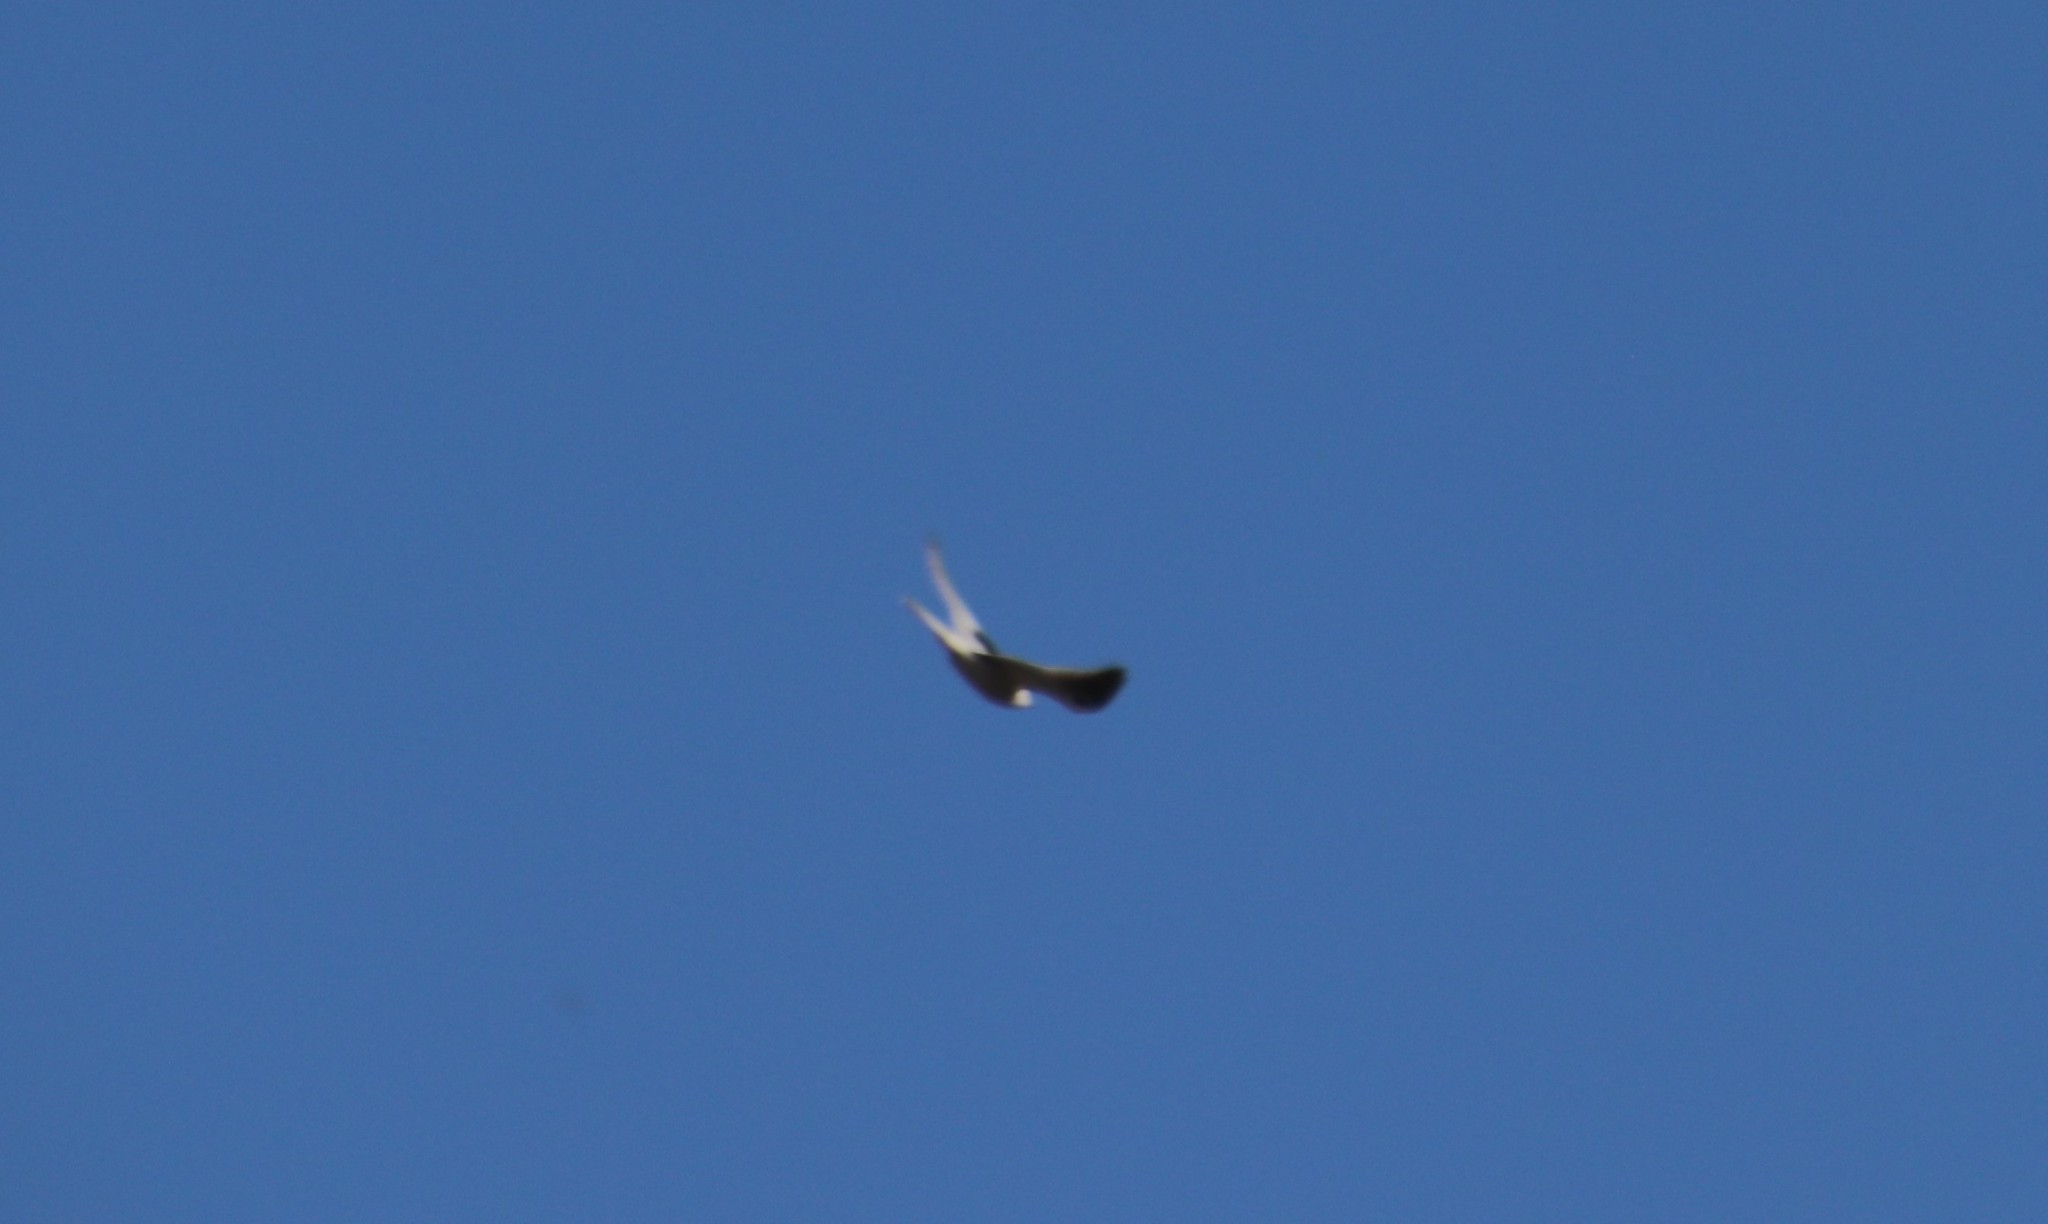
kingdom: Animalia
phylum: Chordata
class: Aves
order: Accipitriformes
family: Accipitridae
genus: Elanus
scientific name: Elanus leucurus
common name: White-tailed kite
